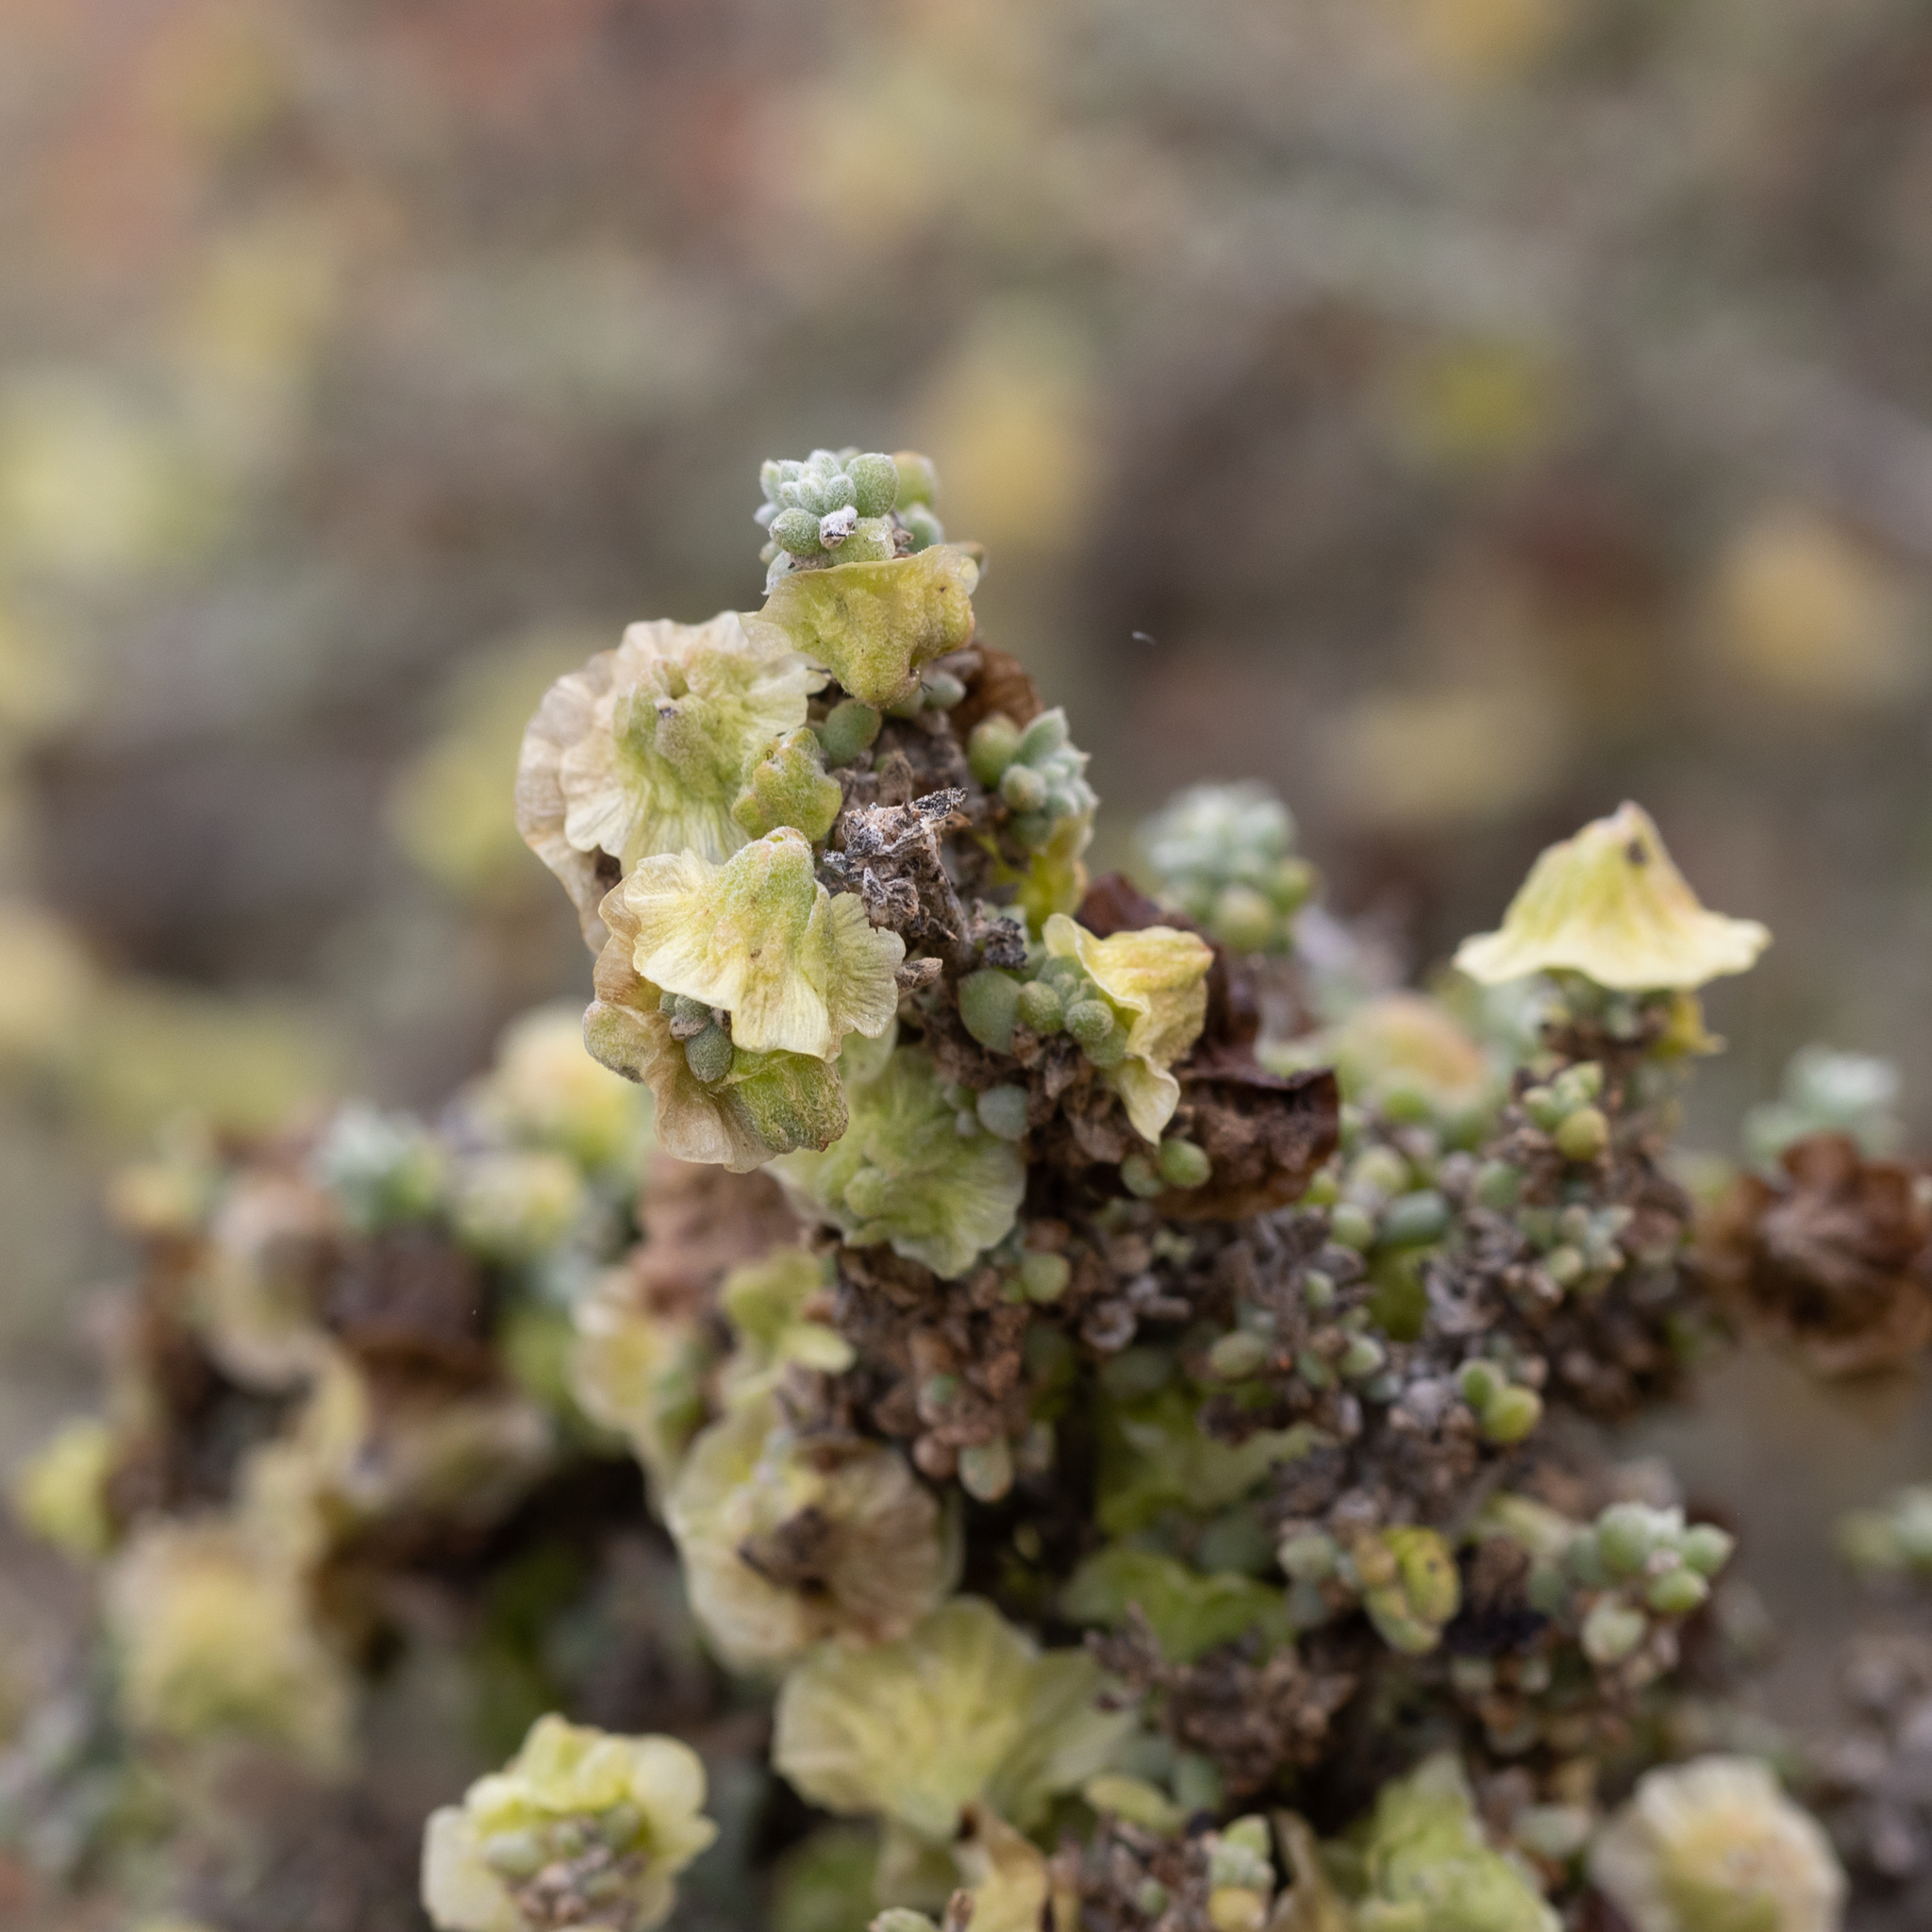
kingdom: Plantae
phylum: Tracheophyta
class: Magnoliopsida
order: Caryophyllales
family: Amaranthaceae
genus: Maireana
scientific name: Maireana pyramidata
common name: Sagobush
